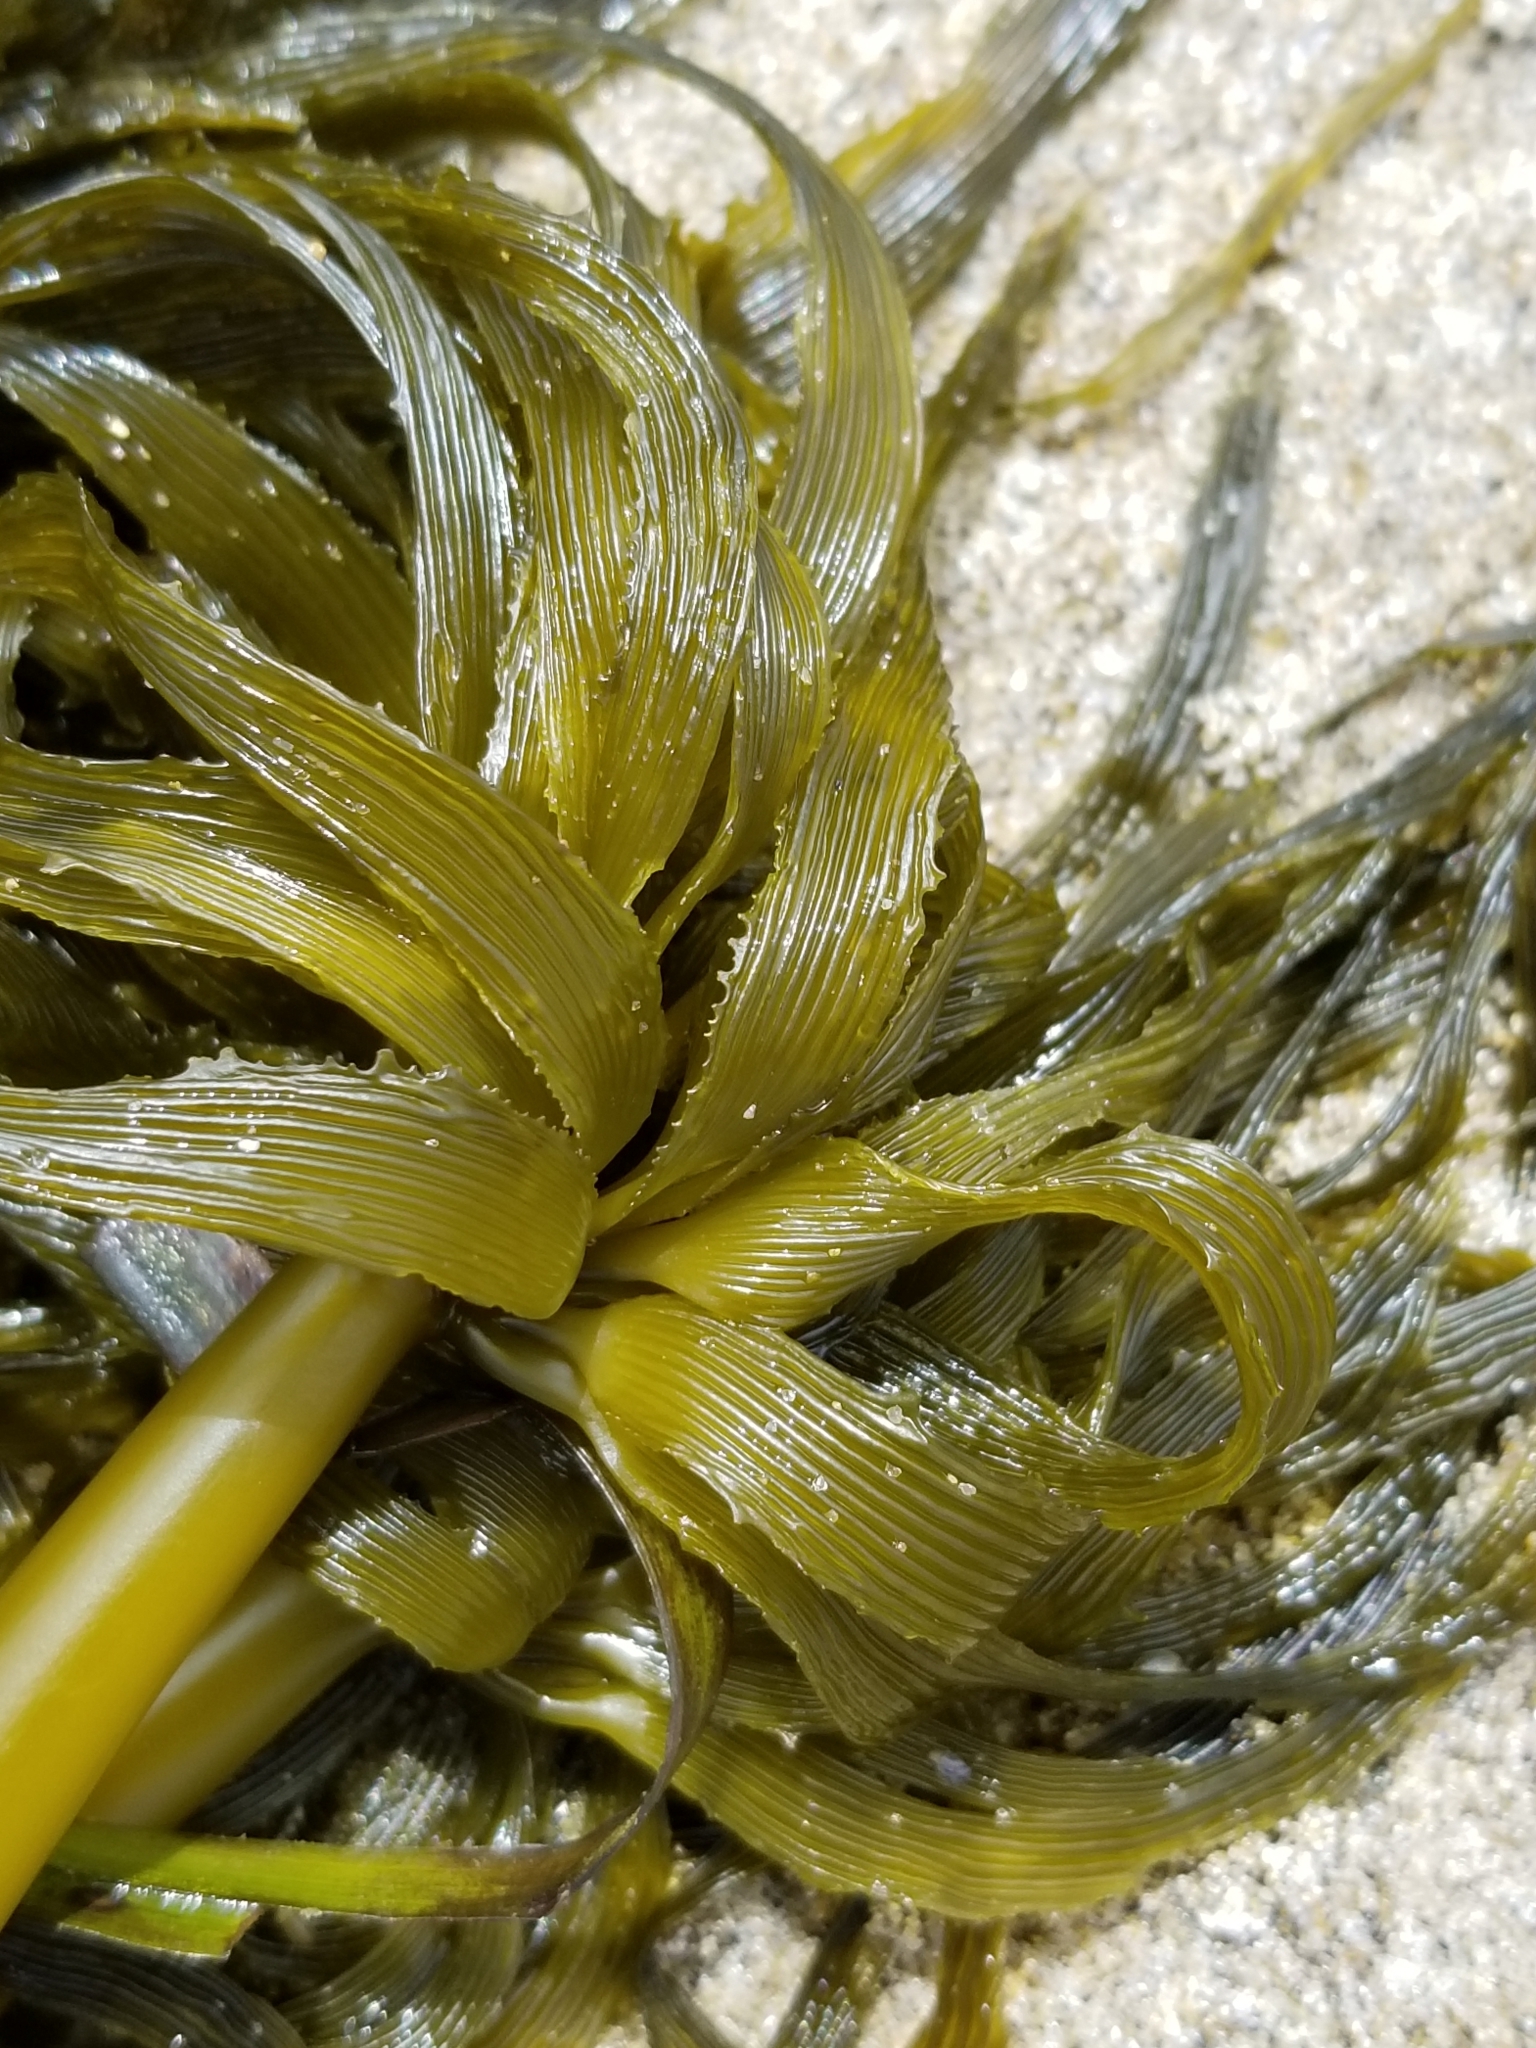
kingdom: Chromista
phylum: Ochrophyta
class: Phaeophyceae
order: Laminariales
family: Laminariaceae
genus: Postelsia
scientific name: Postelsia palmiformis
